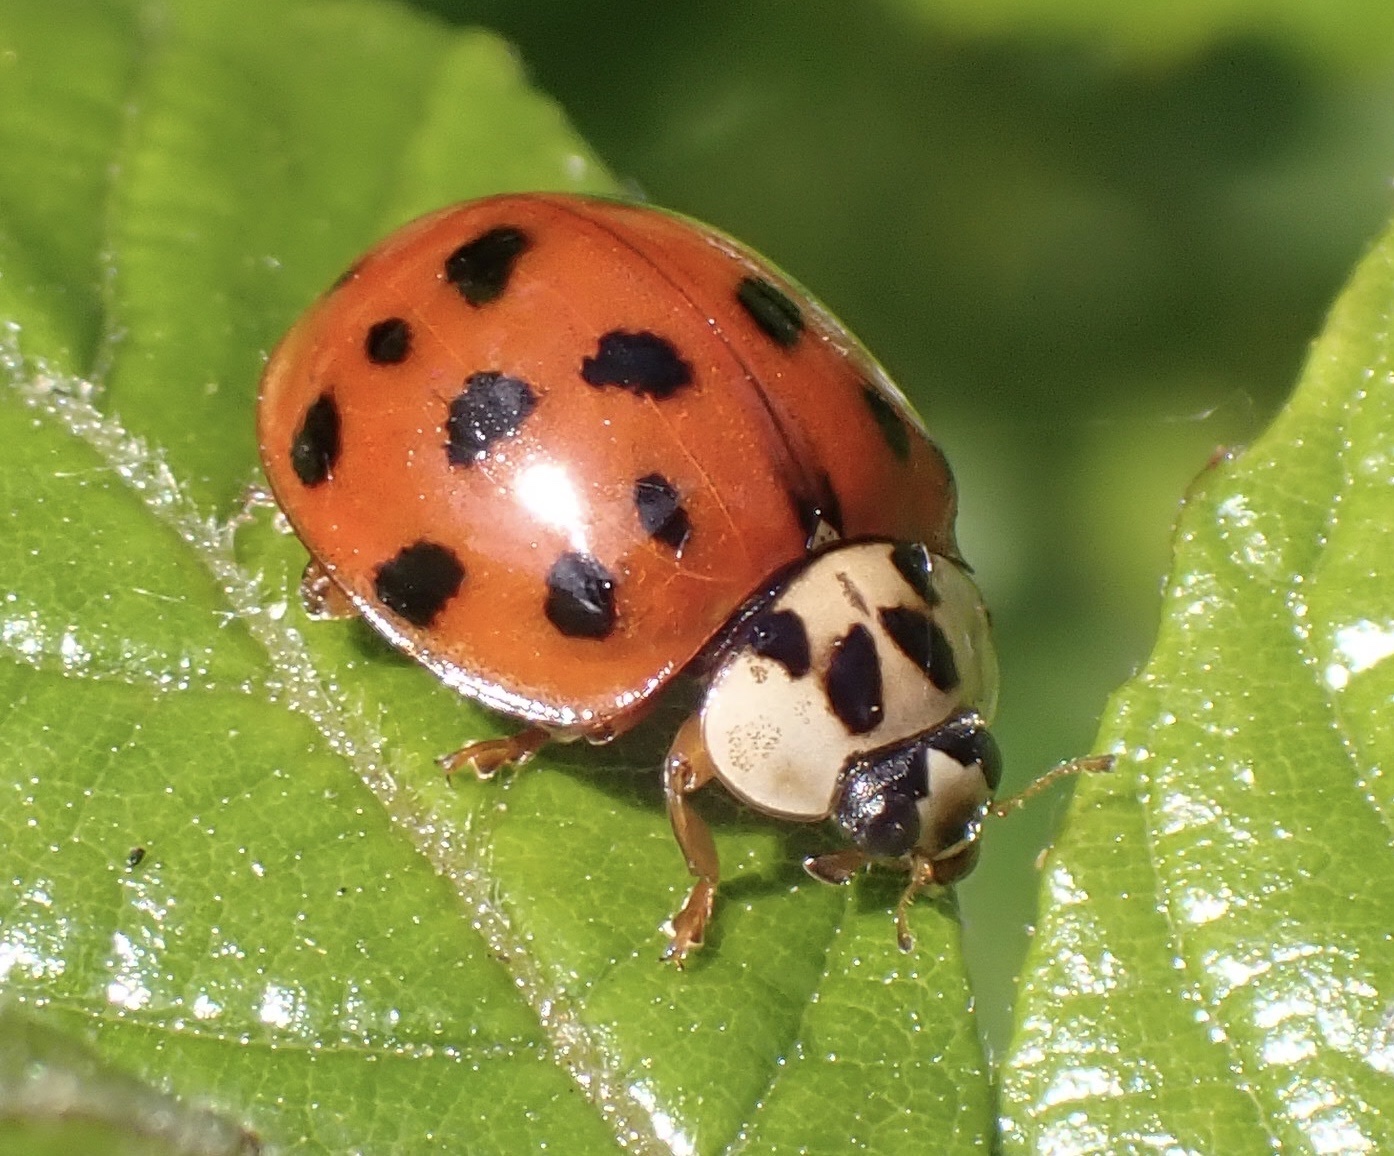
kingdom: Animalia
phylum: Arthropoda
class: Insecta
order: Coleoptera
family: Coccinellidae
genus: Harmonia
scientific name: Harmonia axyridis
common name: Harlequin ladybird
